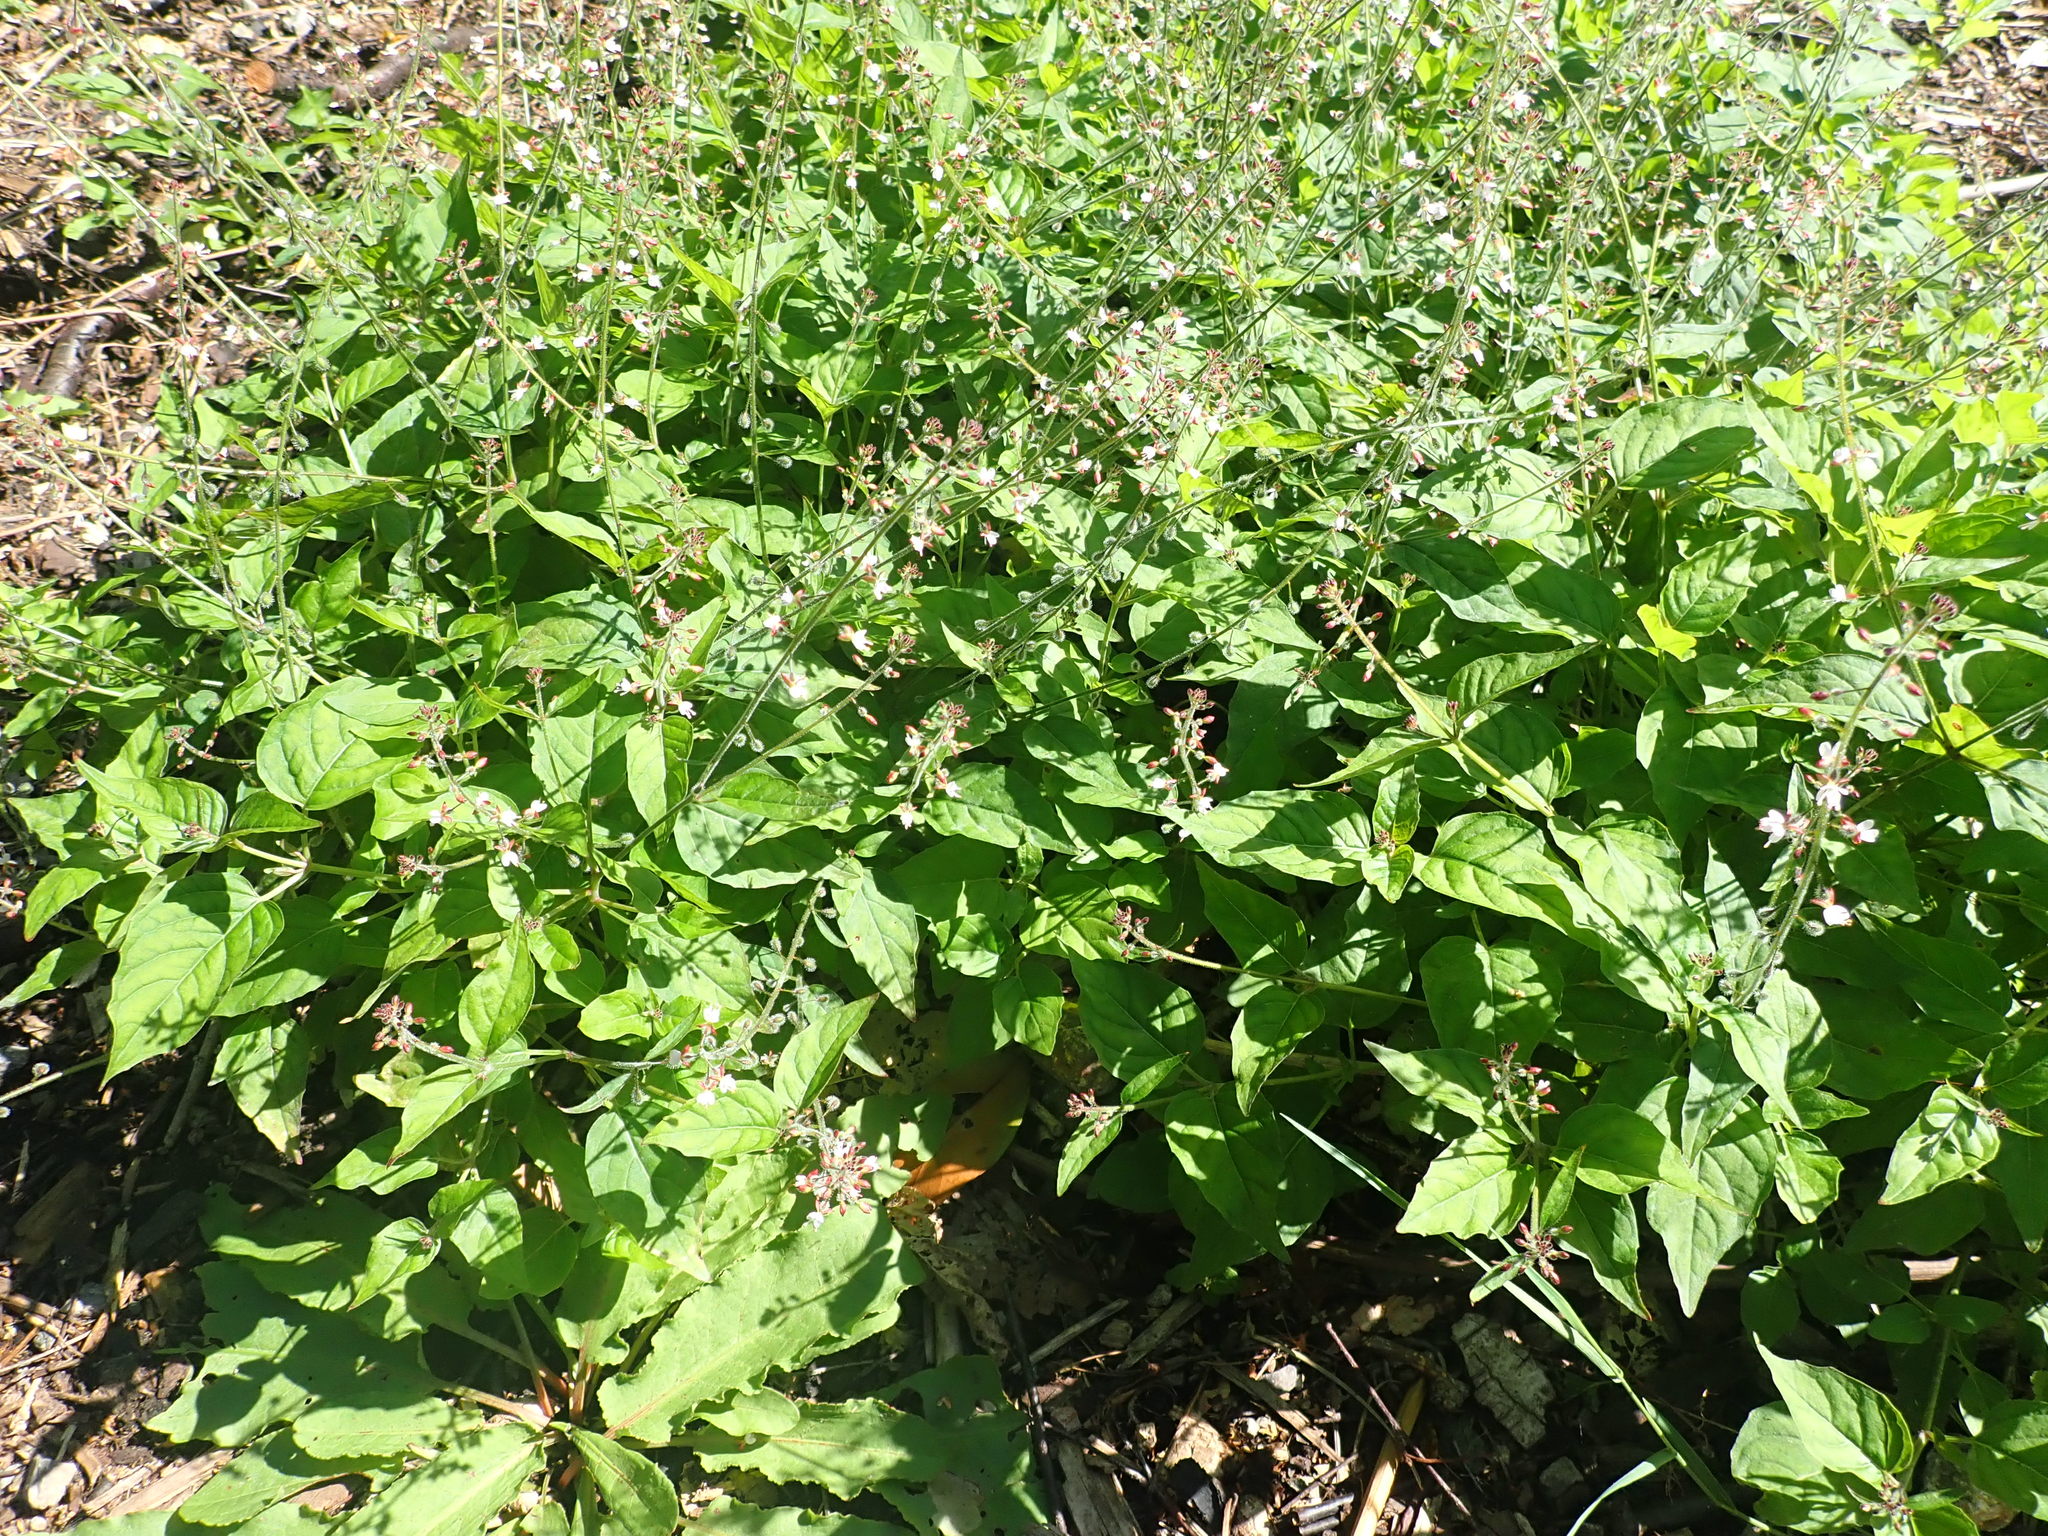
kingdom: Plantae
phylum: Tracheophyta
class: Magnoliopsida
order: Myrtales
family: Onagraceae
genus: Circaea
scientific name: Circaea lutetiana
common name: Enchanter's-nightshade
